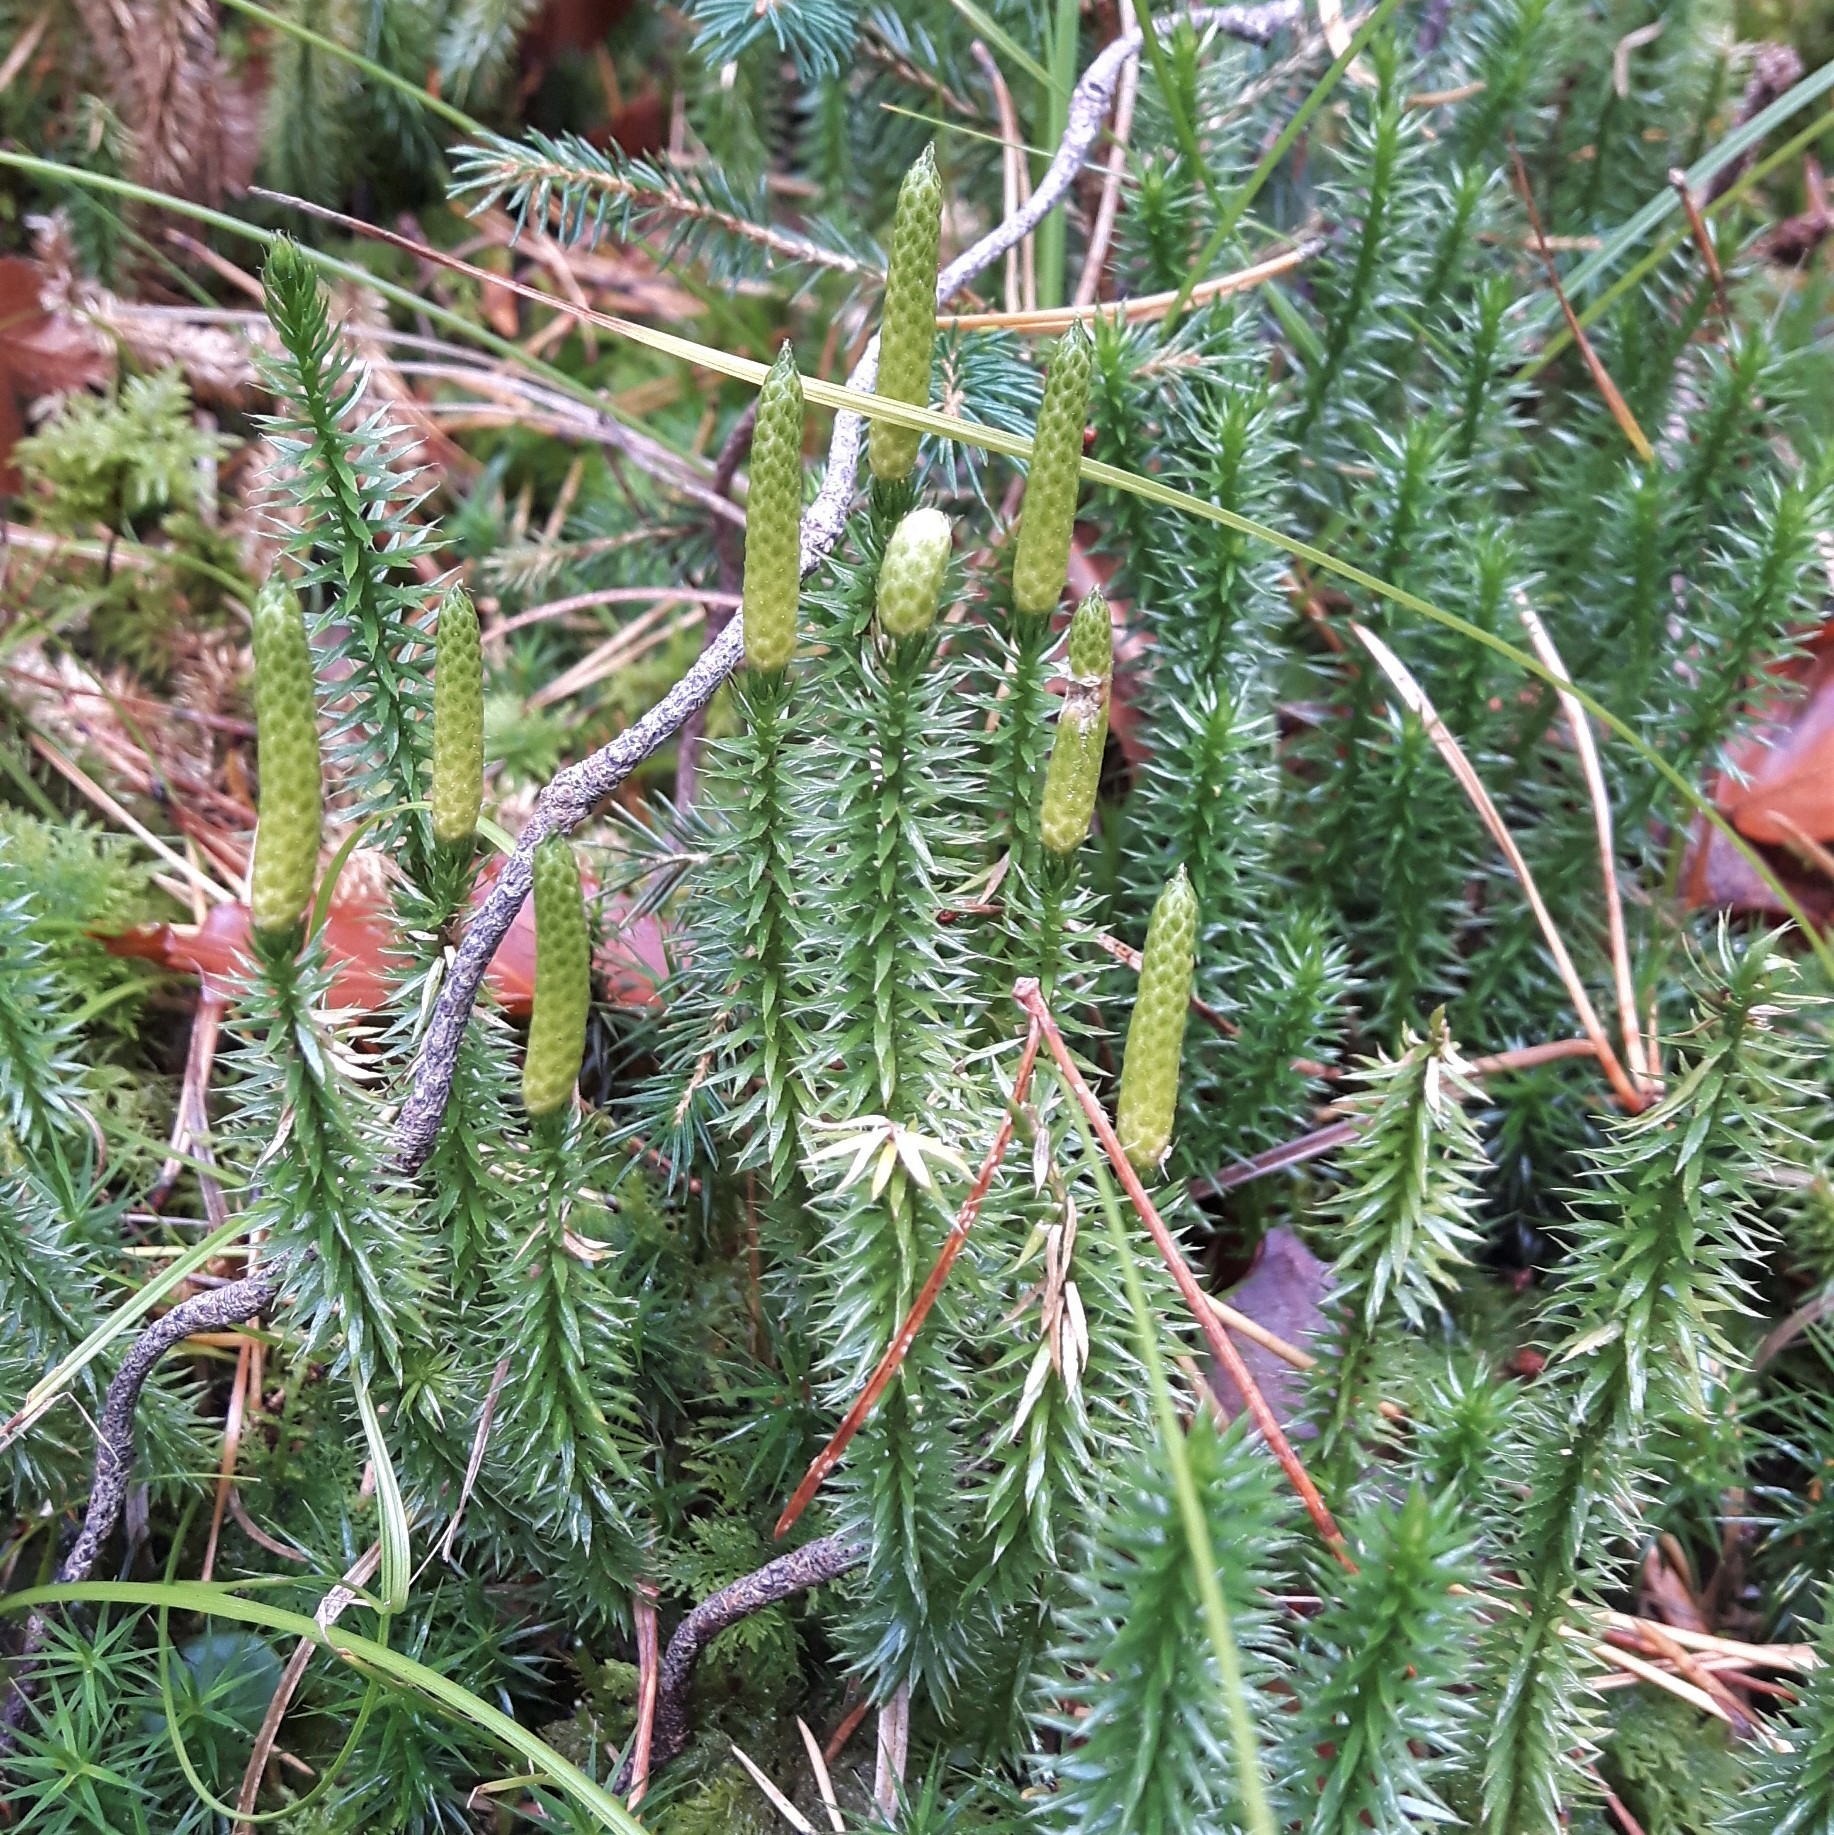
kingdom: Plantae
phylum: Tracheophyta
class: Lycopodiopsida
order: Lycopodiales
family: Lycopodiaceae
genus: Spinulum
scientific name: Spinulum annotinum
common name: Interrupted club-moss
